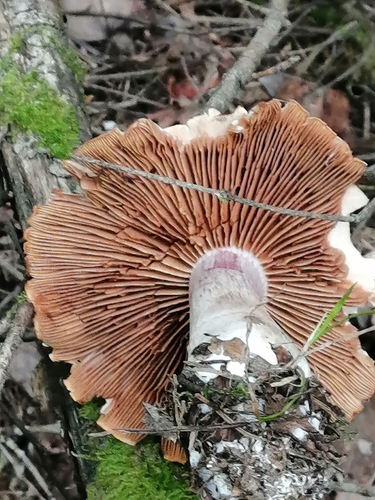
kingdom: Fungi
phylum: Basidiomycota
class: Agaricomycetes
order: Agaricales
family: Cortinariaceae
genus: Cortinarius
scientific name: Cortinarius
